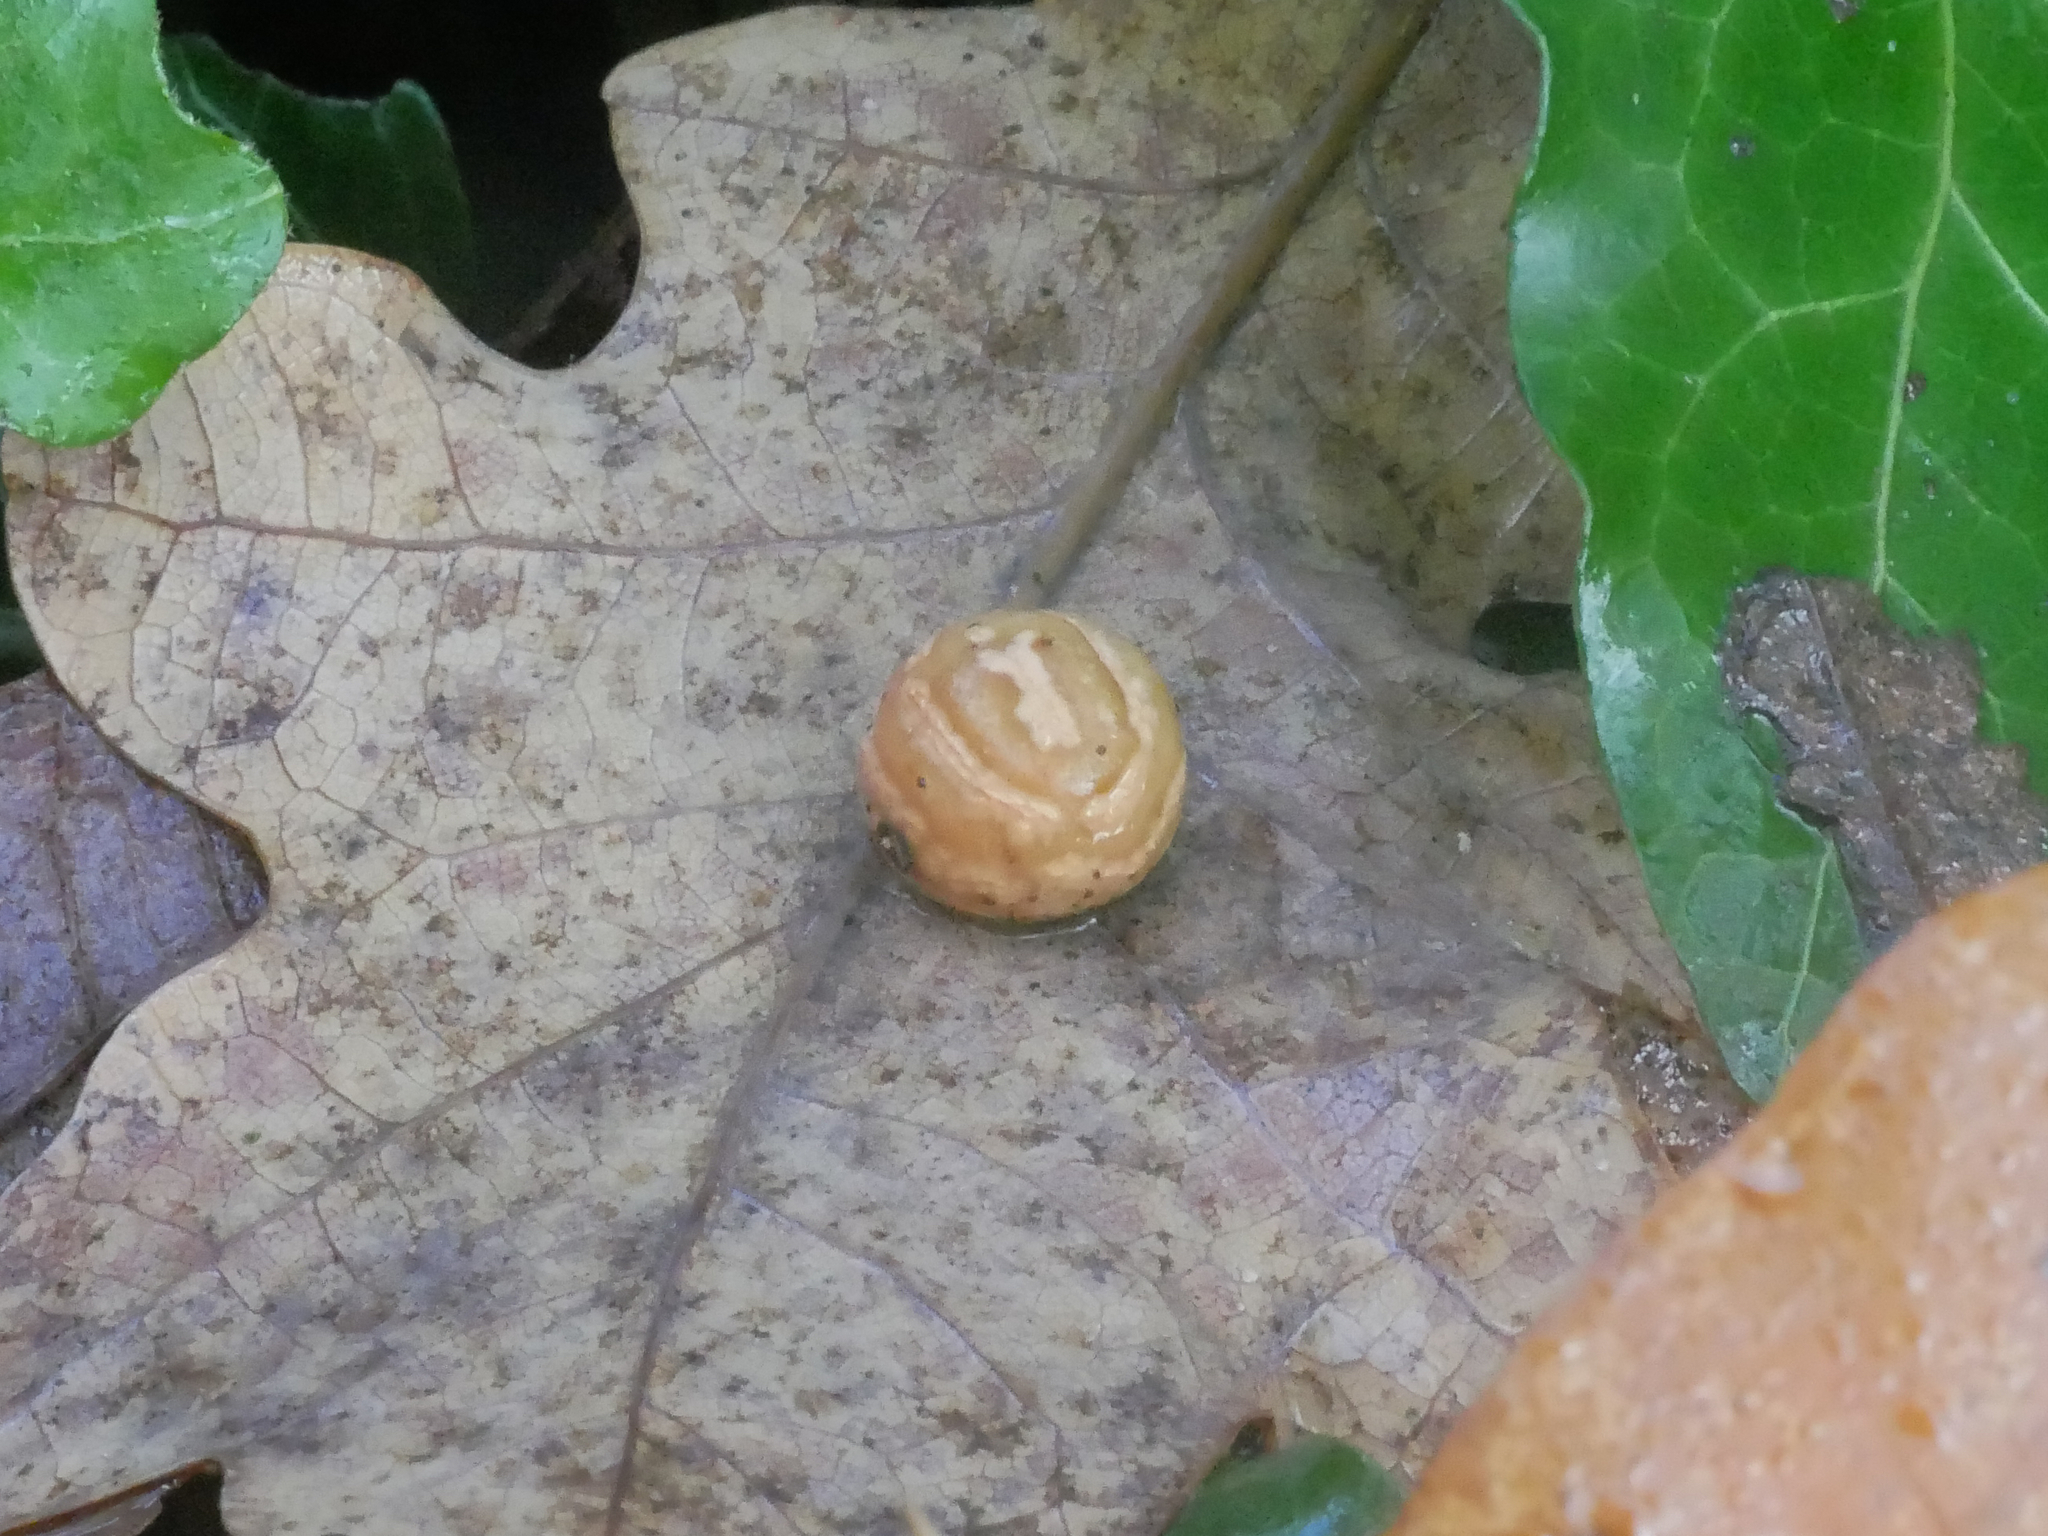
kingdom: Animalia
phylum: Arthropoda
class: Insecta
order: Hymenoptera
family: Cynipidae
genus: Cynips
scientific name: Cynips longiventris
